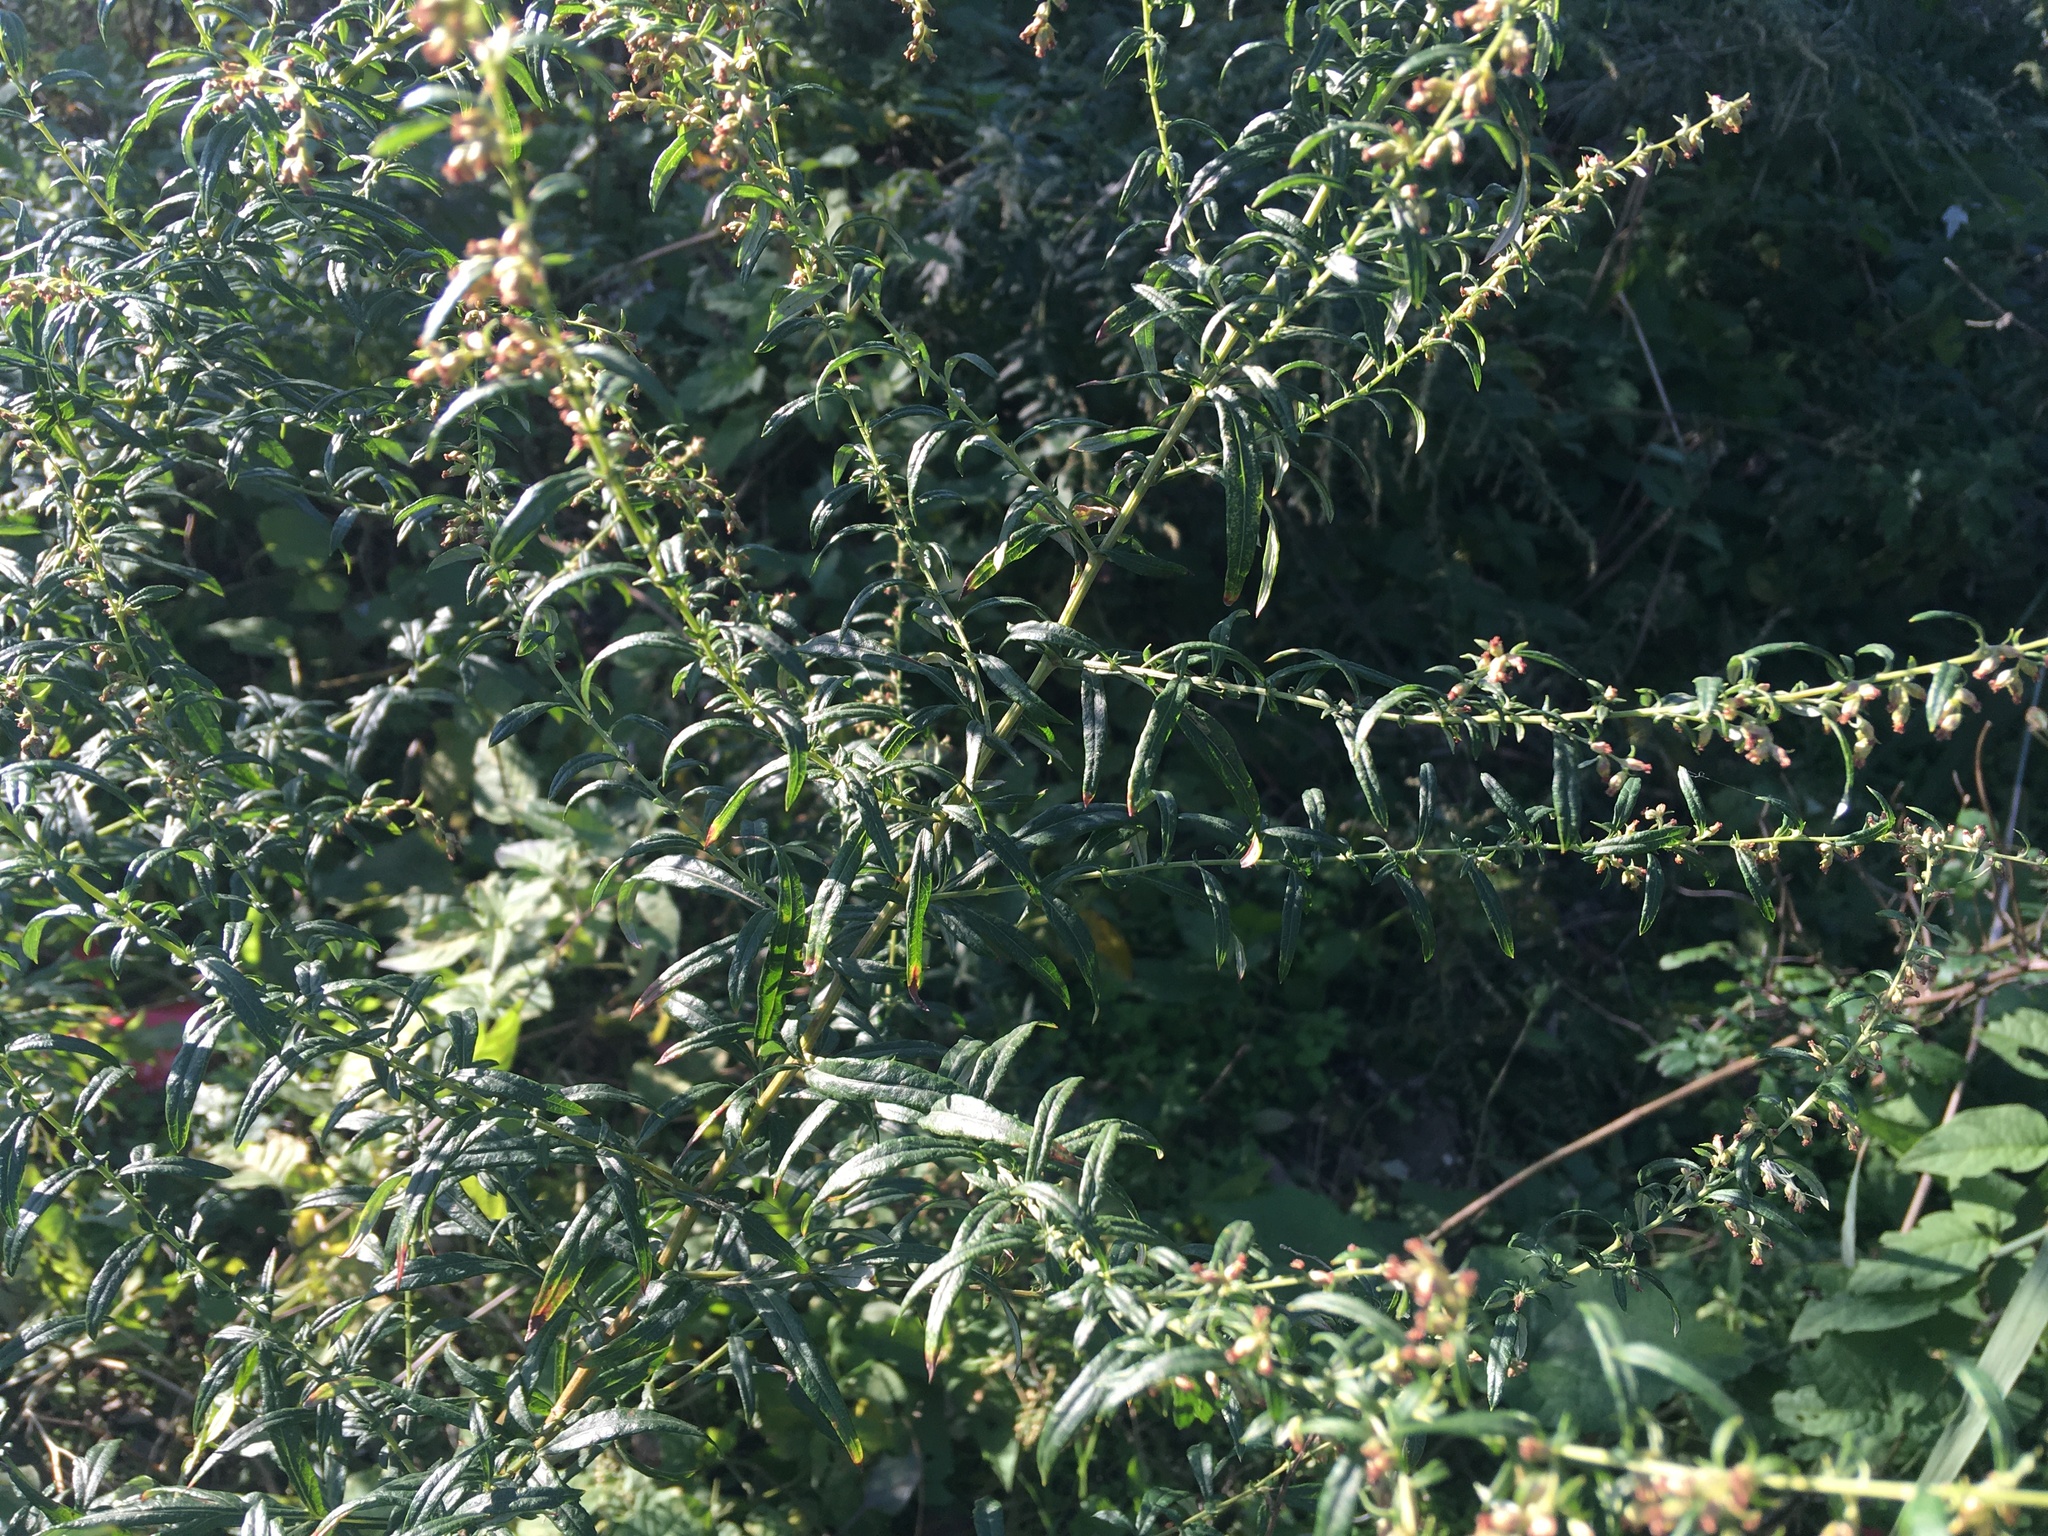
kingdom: Plantae
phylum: Tracheophyta
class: Magnoliopsida
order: Asterales
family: Asteraceae
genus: Artemisia
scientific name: Artemisia vulgaris
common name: Mugwort
